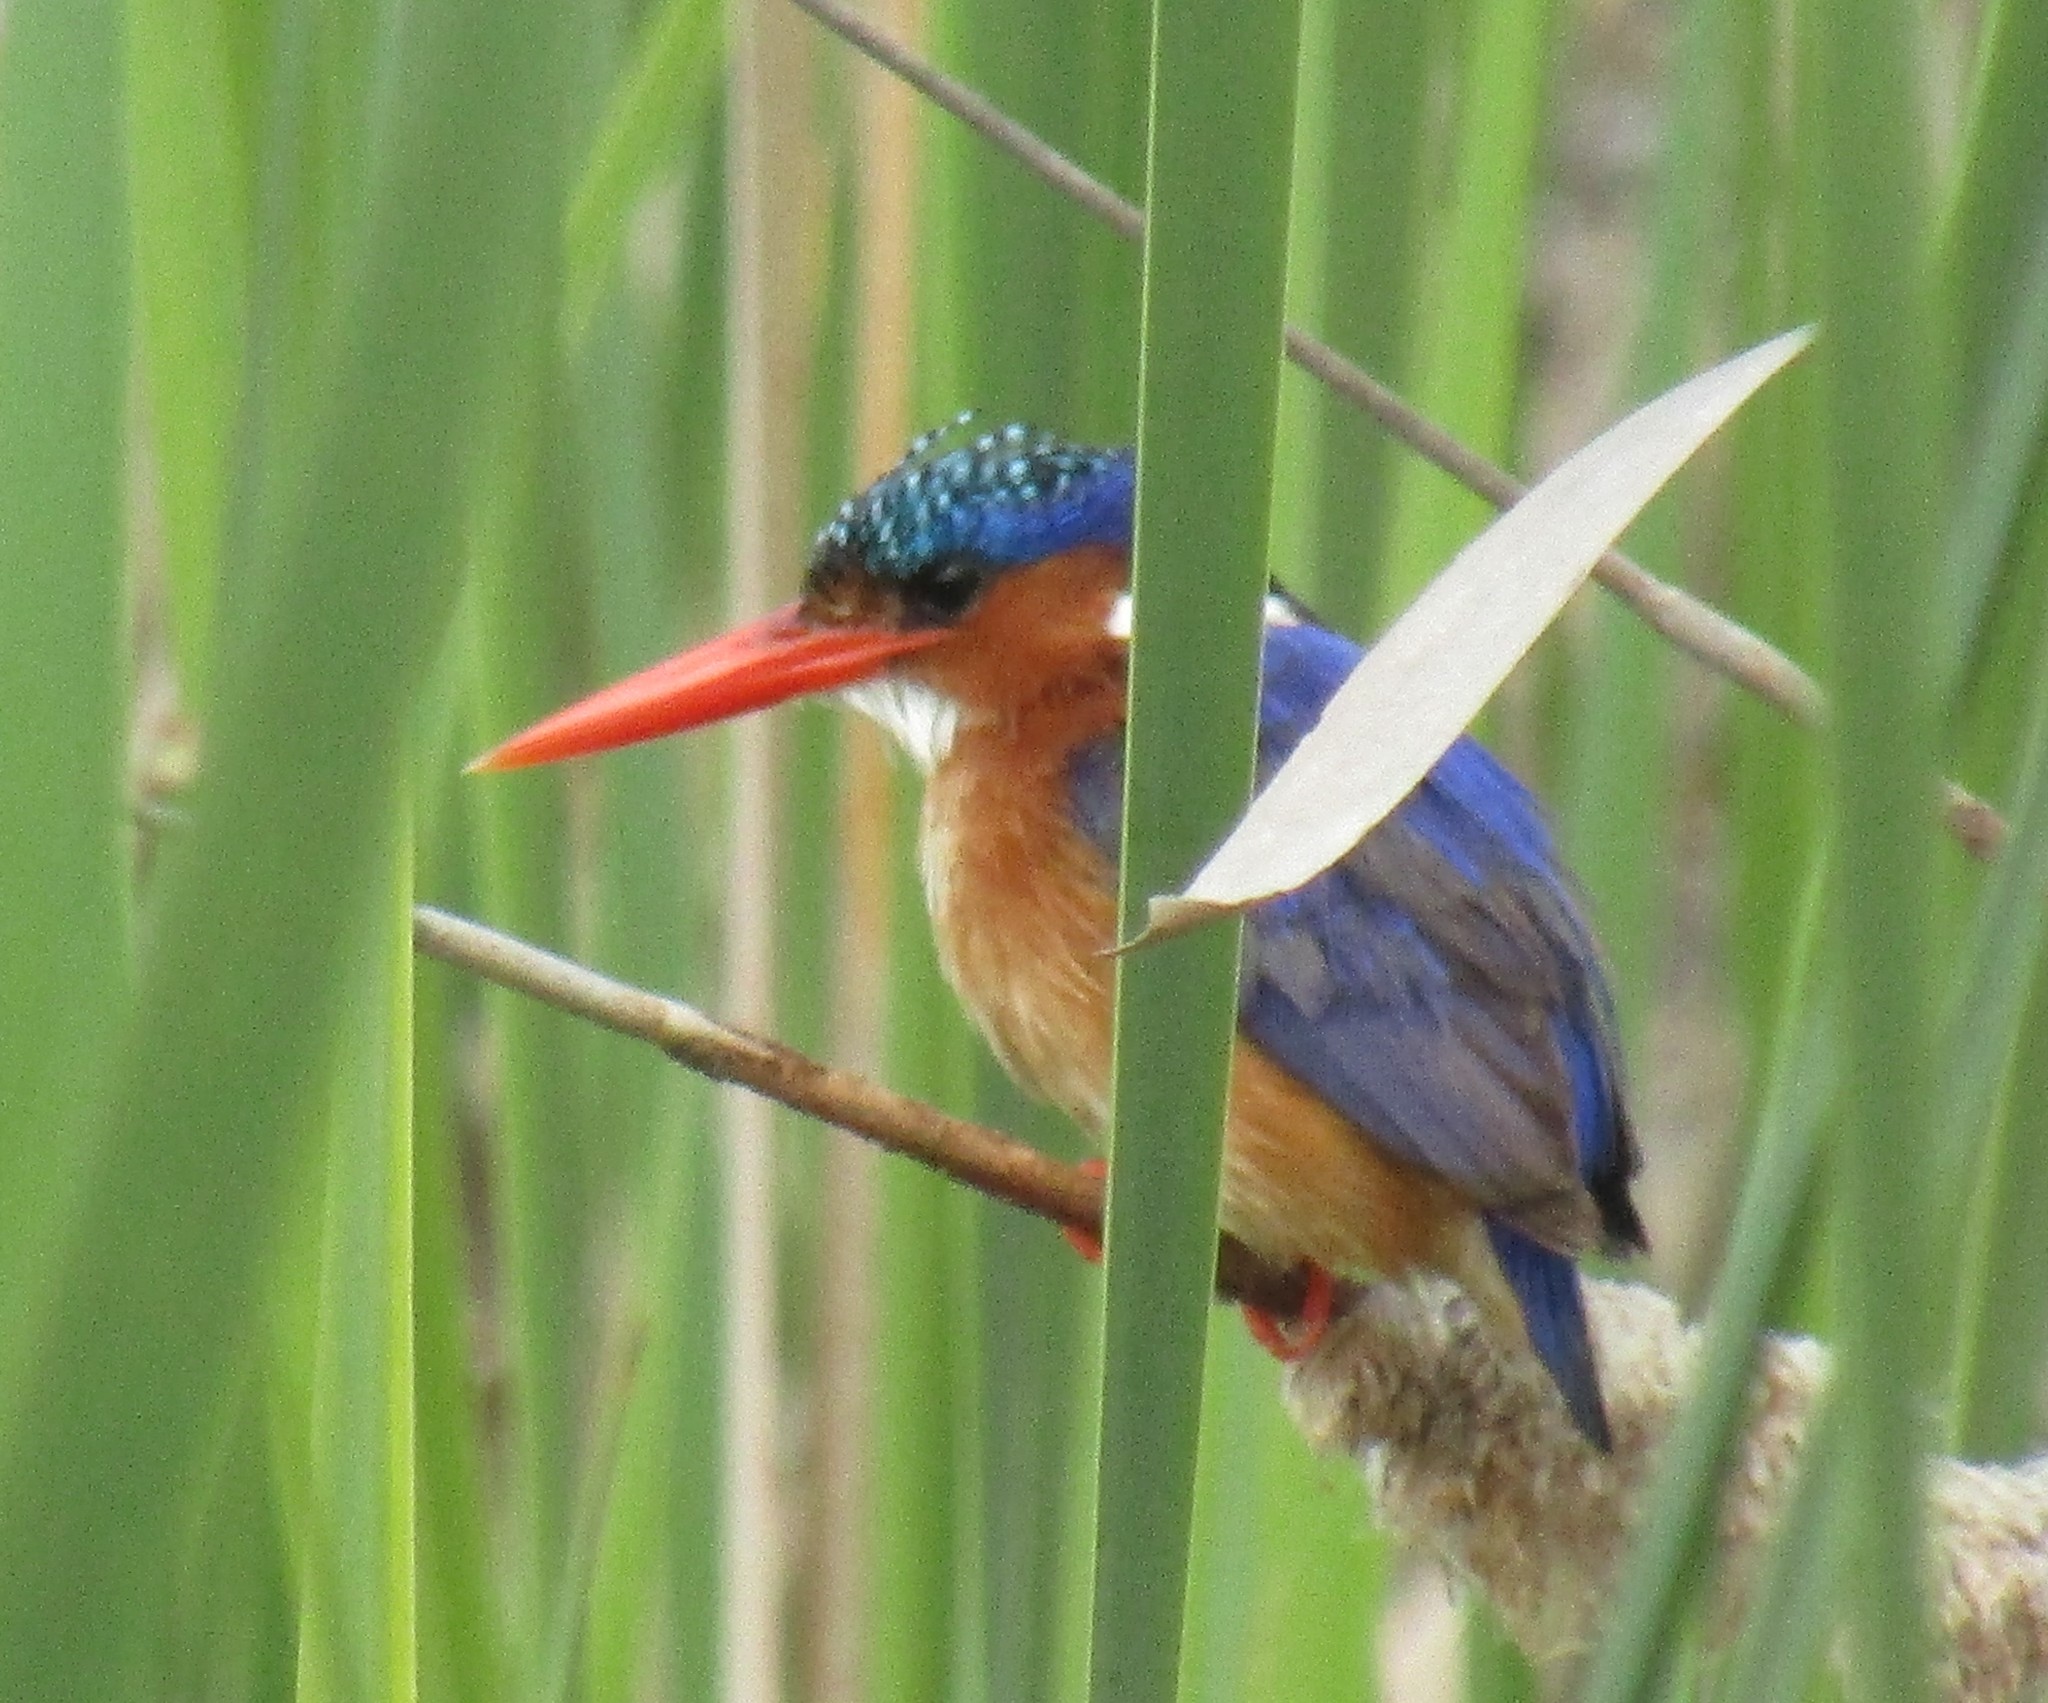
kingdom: Animalia
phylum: Chordata
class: Aves
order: Coraciiformes
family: Alcedinidae
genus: Corythornis
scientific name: Corythornis cristatus
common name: Malachite kingfisher
